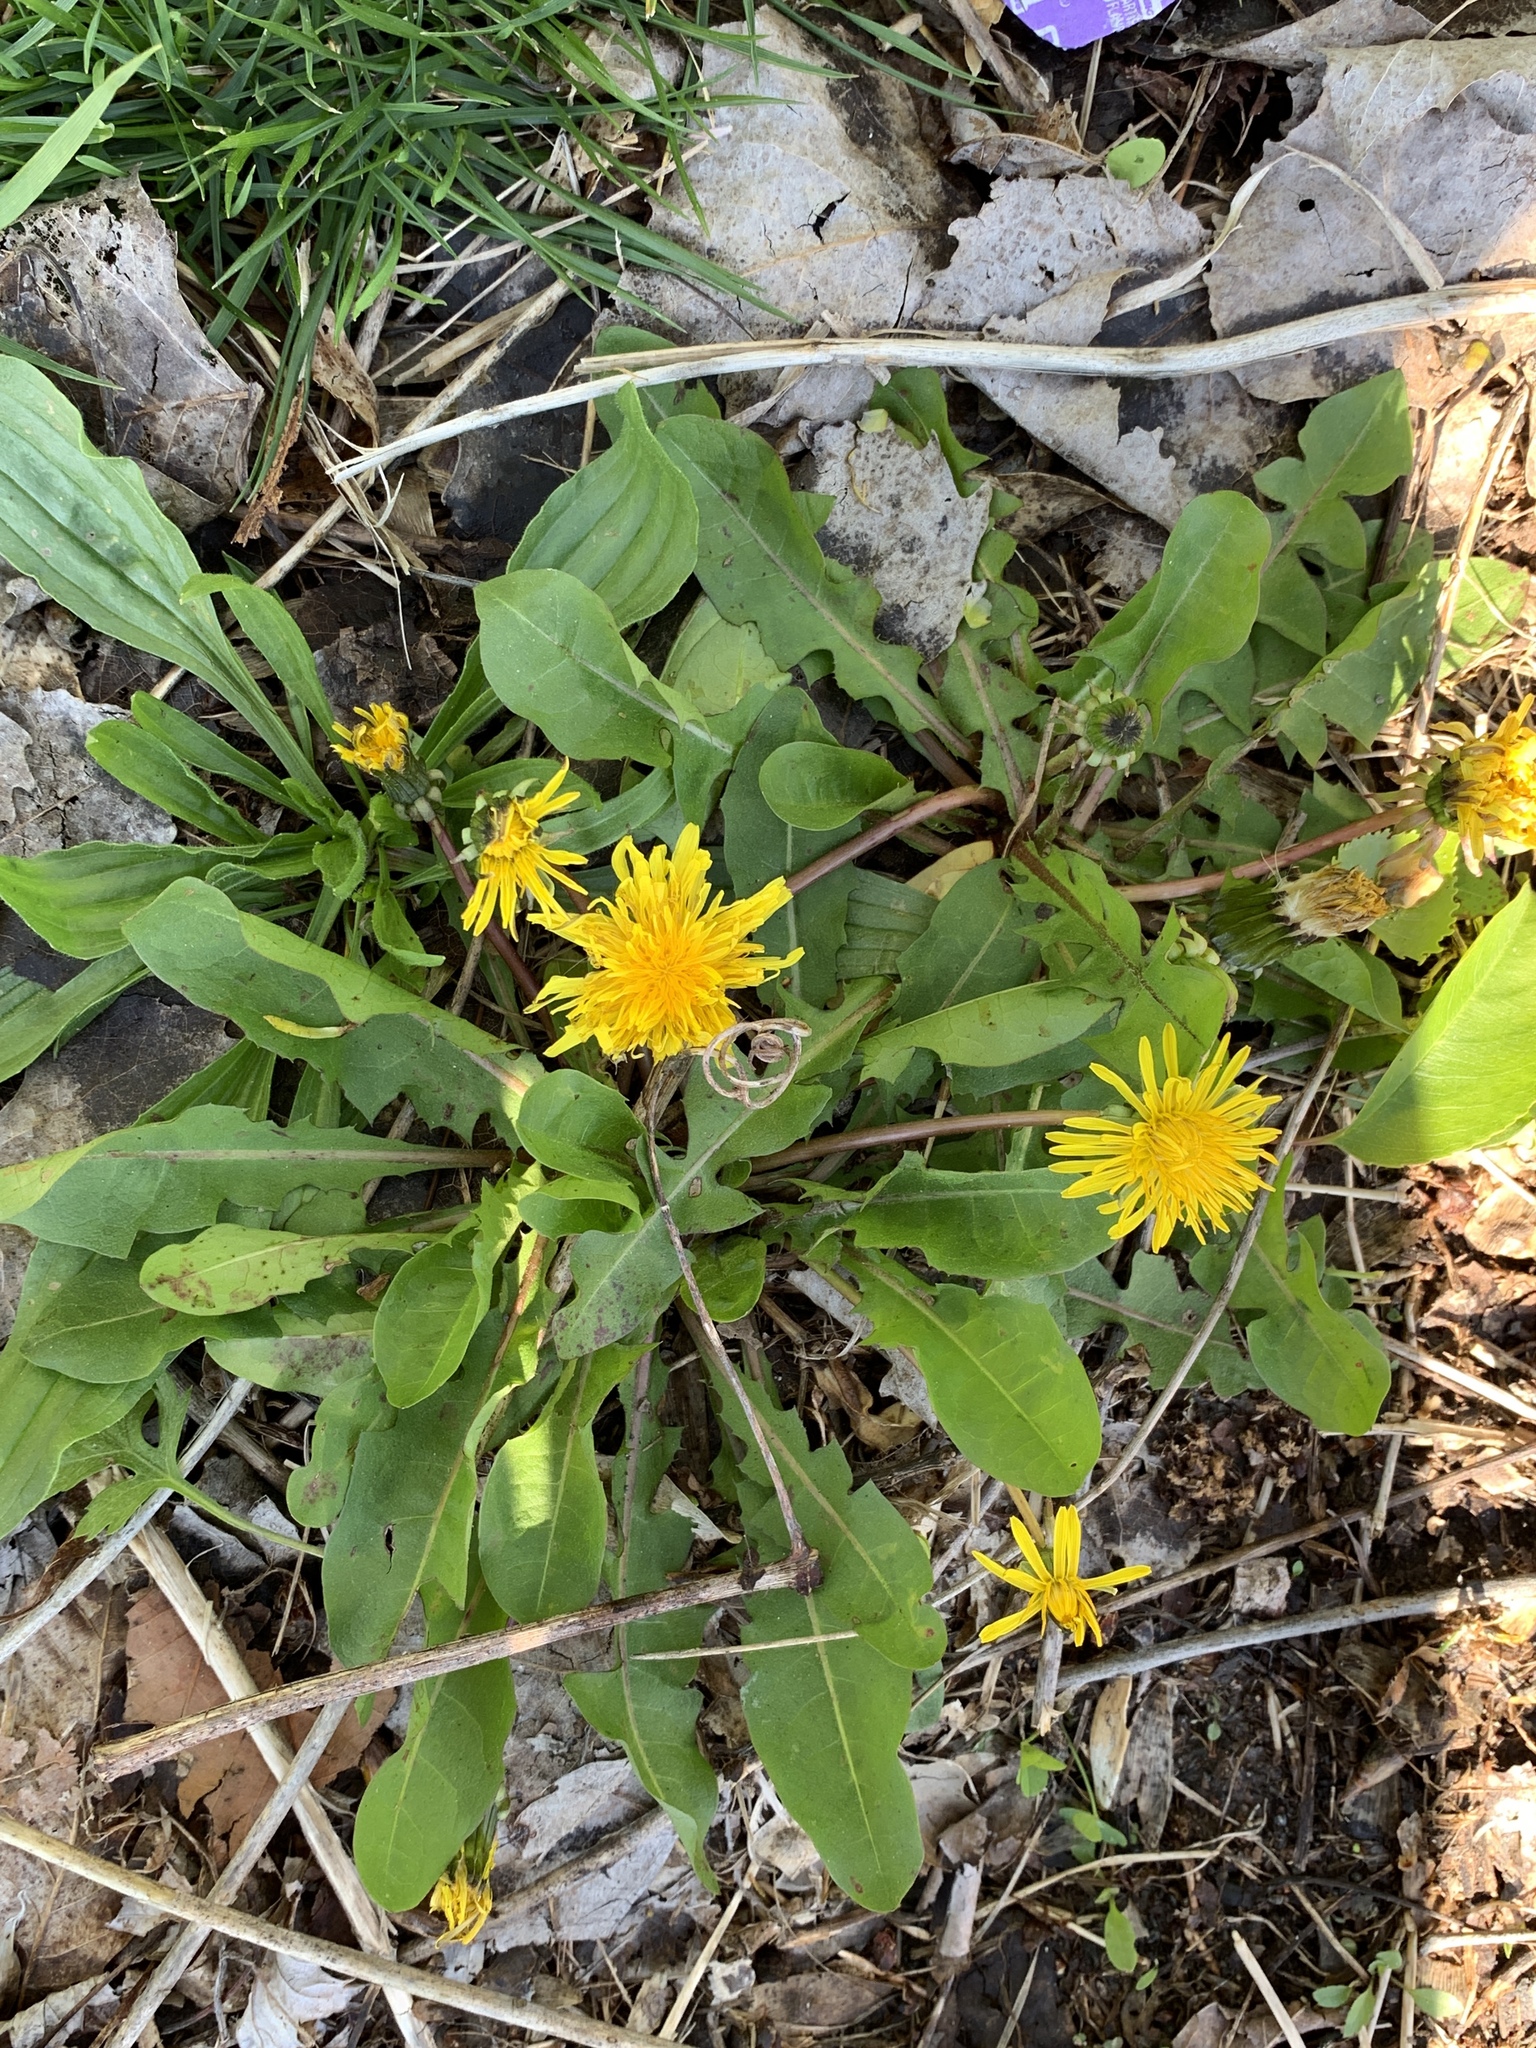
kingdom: Plantae
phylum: Tracheophyta
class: Magnoliopsida
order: Asterales
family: Asteraceae
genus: Taraxacum
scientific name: Taraxacum officinale
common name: Common dandelion
